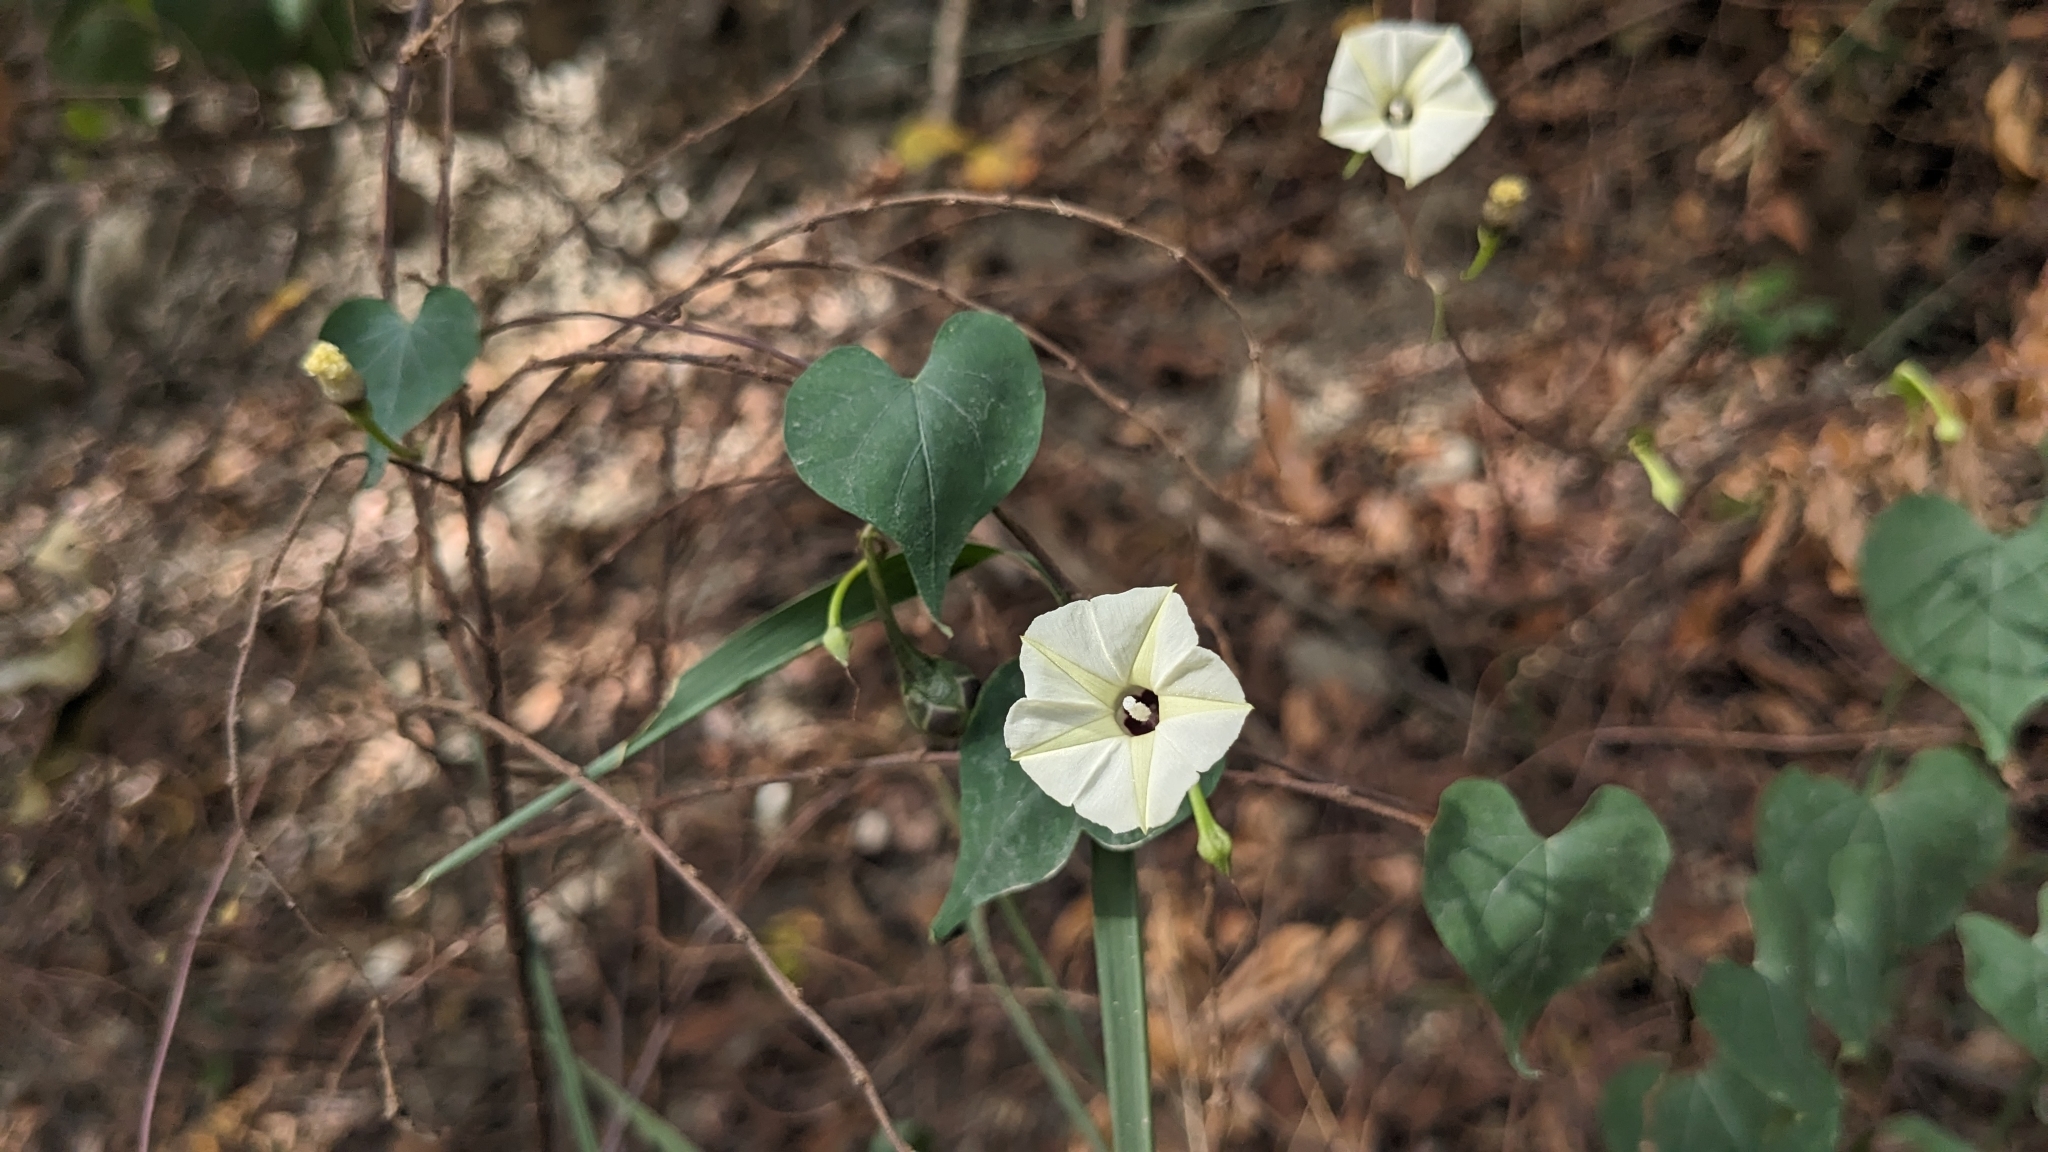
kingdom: Plantae
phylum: Tracheophyta
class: Magnoliopsida
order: Solanales
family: Convolvulaceae
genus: Ipomoea
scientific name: Ipomoea obscura
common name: Obscure morning-glory
